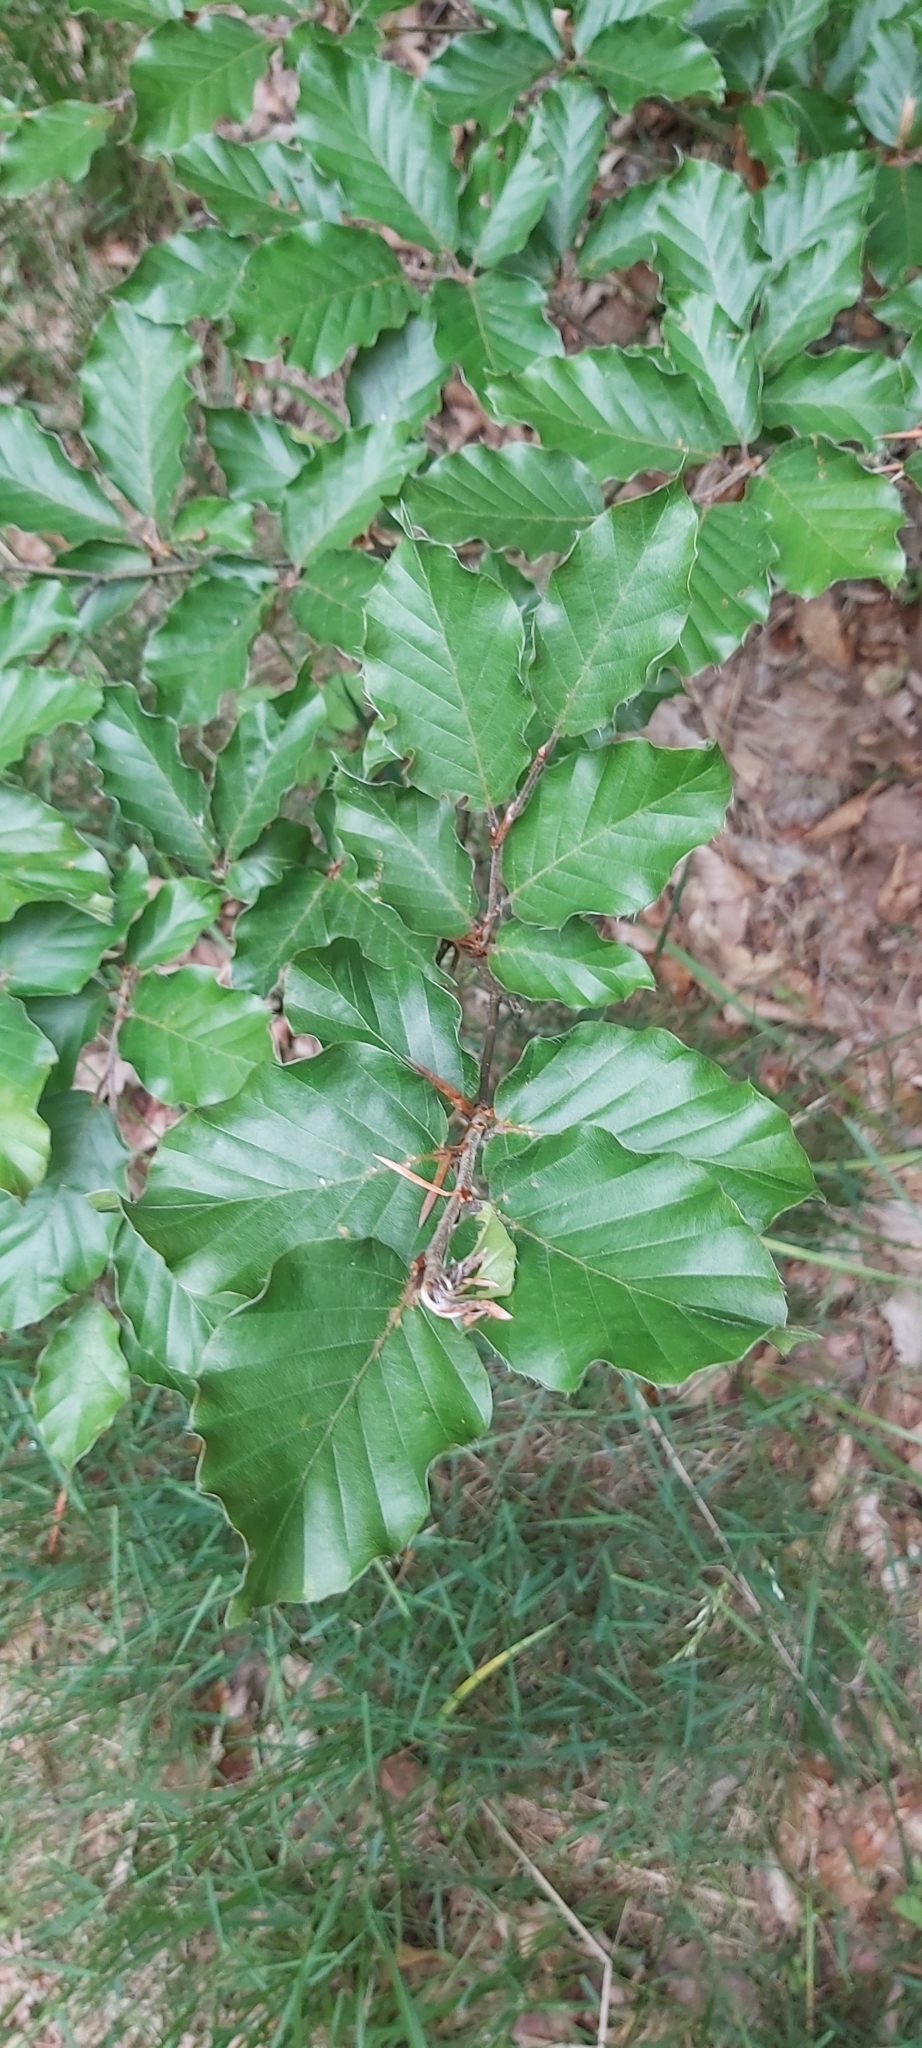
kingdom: Plantae
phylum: Tracheophyta
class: Magnoliopsida
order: Fagales
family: Fagaceae
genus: Fagus
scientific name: Fagus sylvatica
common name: Beech
